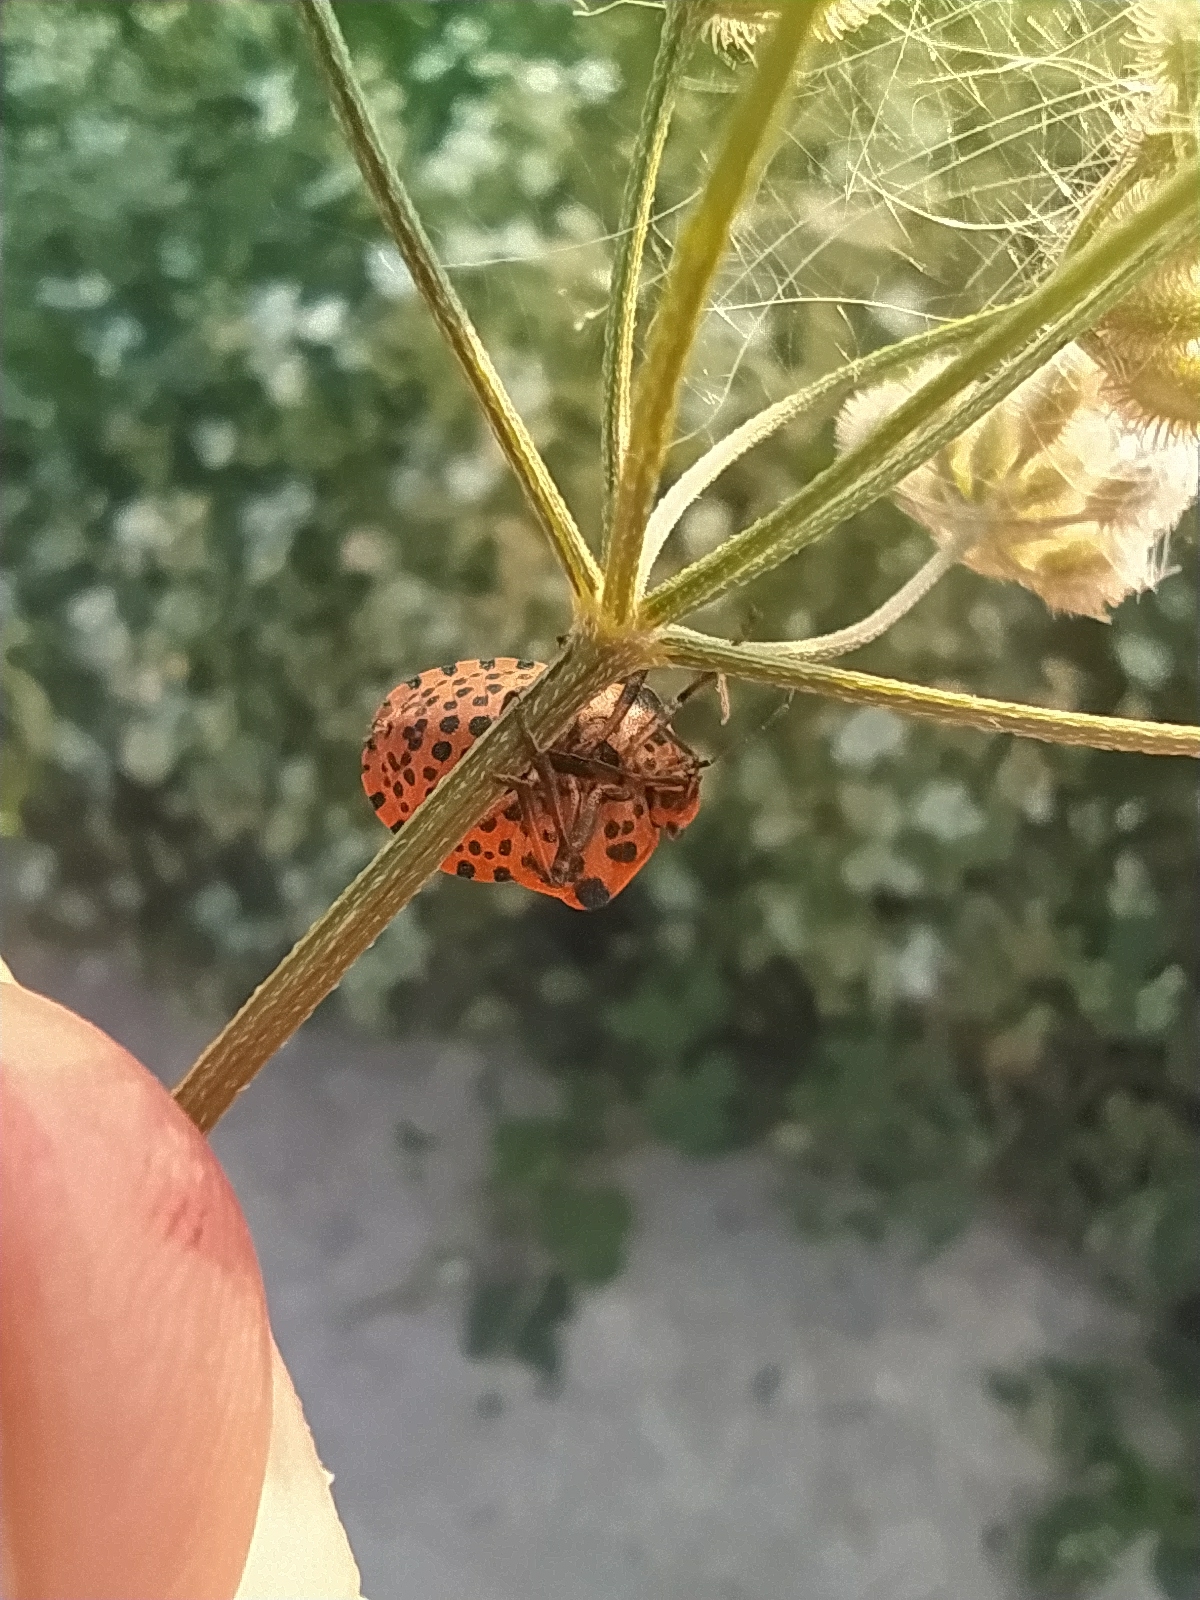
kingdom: Animalia
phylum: Arthropoda
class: Insecta
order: Hemiptera
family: Pentatomidae
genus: Graphosoma
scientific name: Graphosoma italicum
